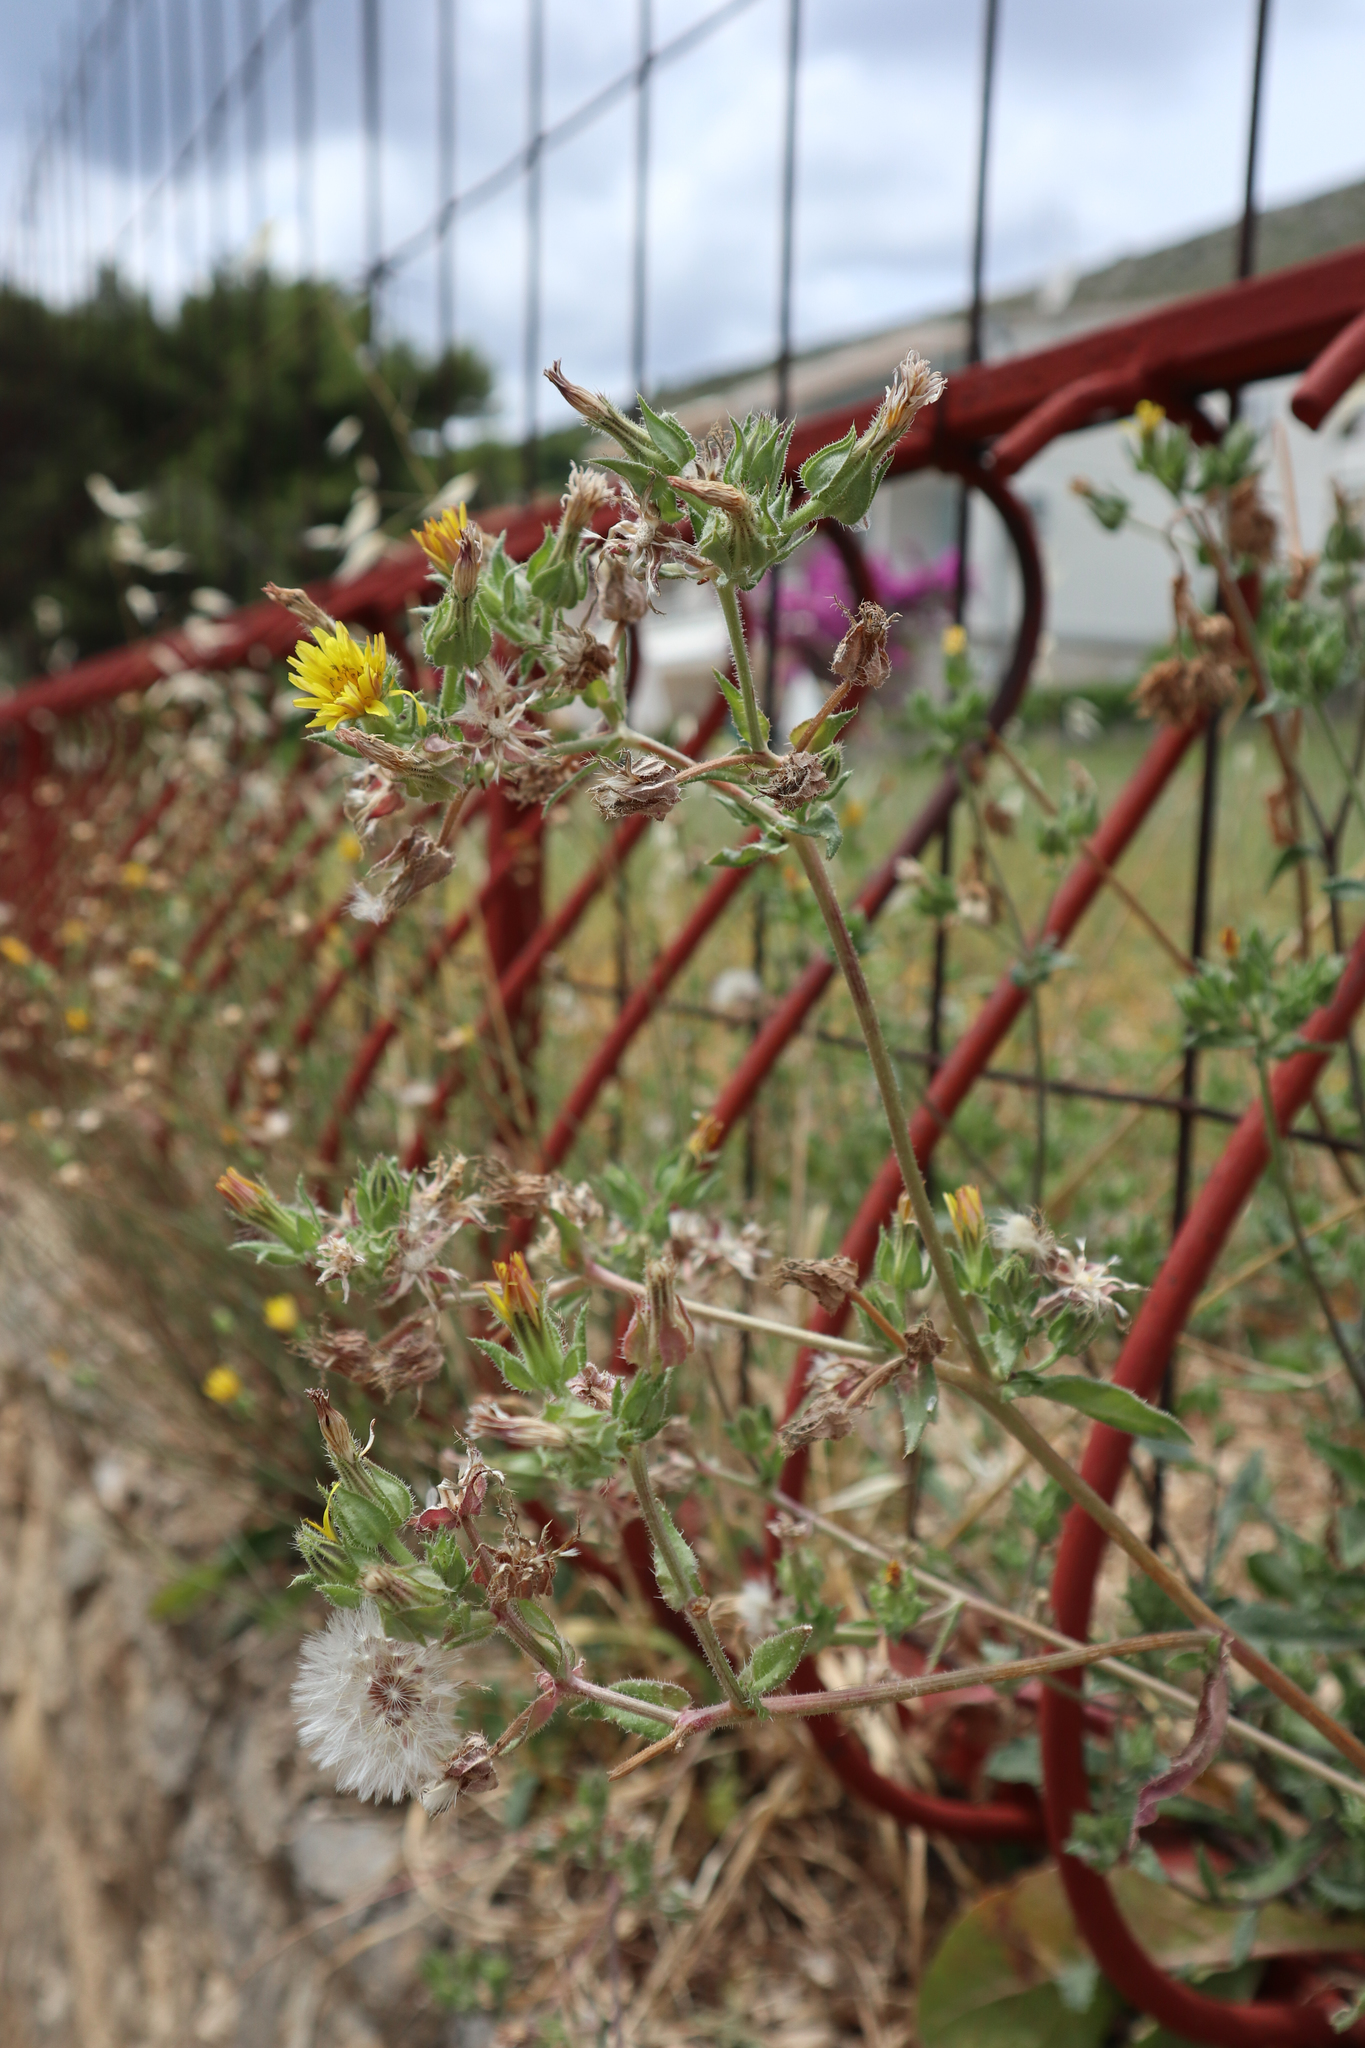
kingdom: Plantae
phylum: Tracheophyta
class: Magnoliopsida
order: Asterales
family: Asteraceae
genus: Helminthotheca
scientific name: Helminthotheca echioides
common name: Ox-tongue
